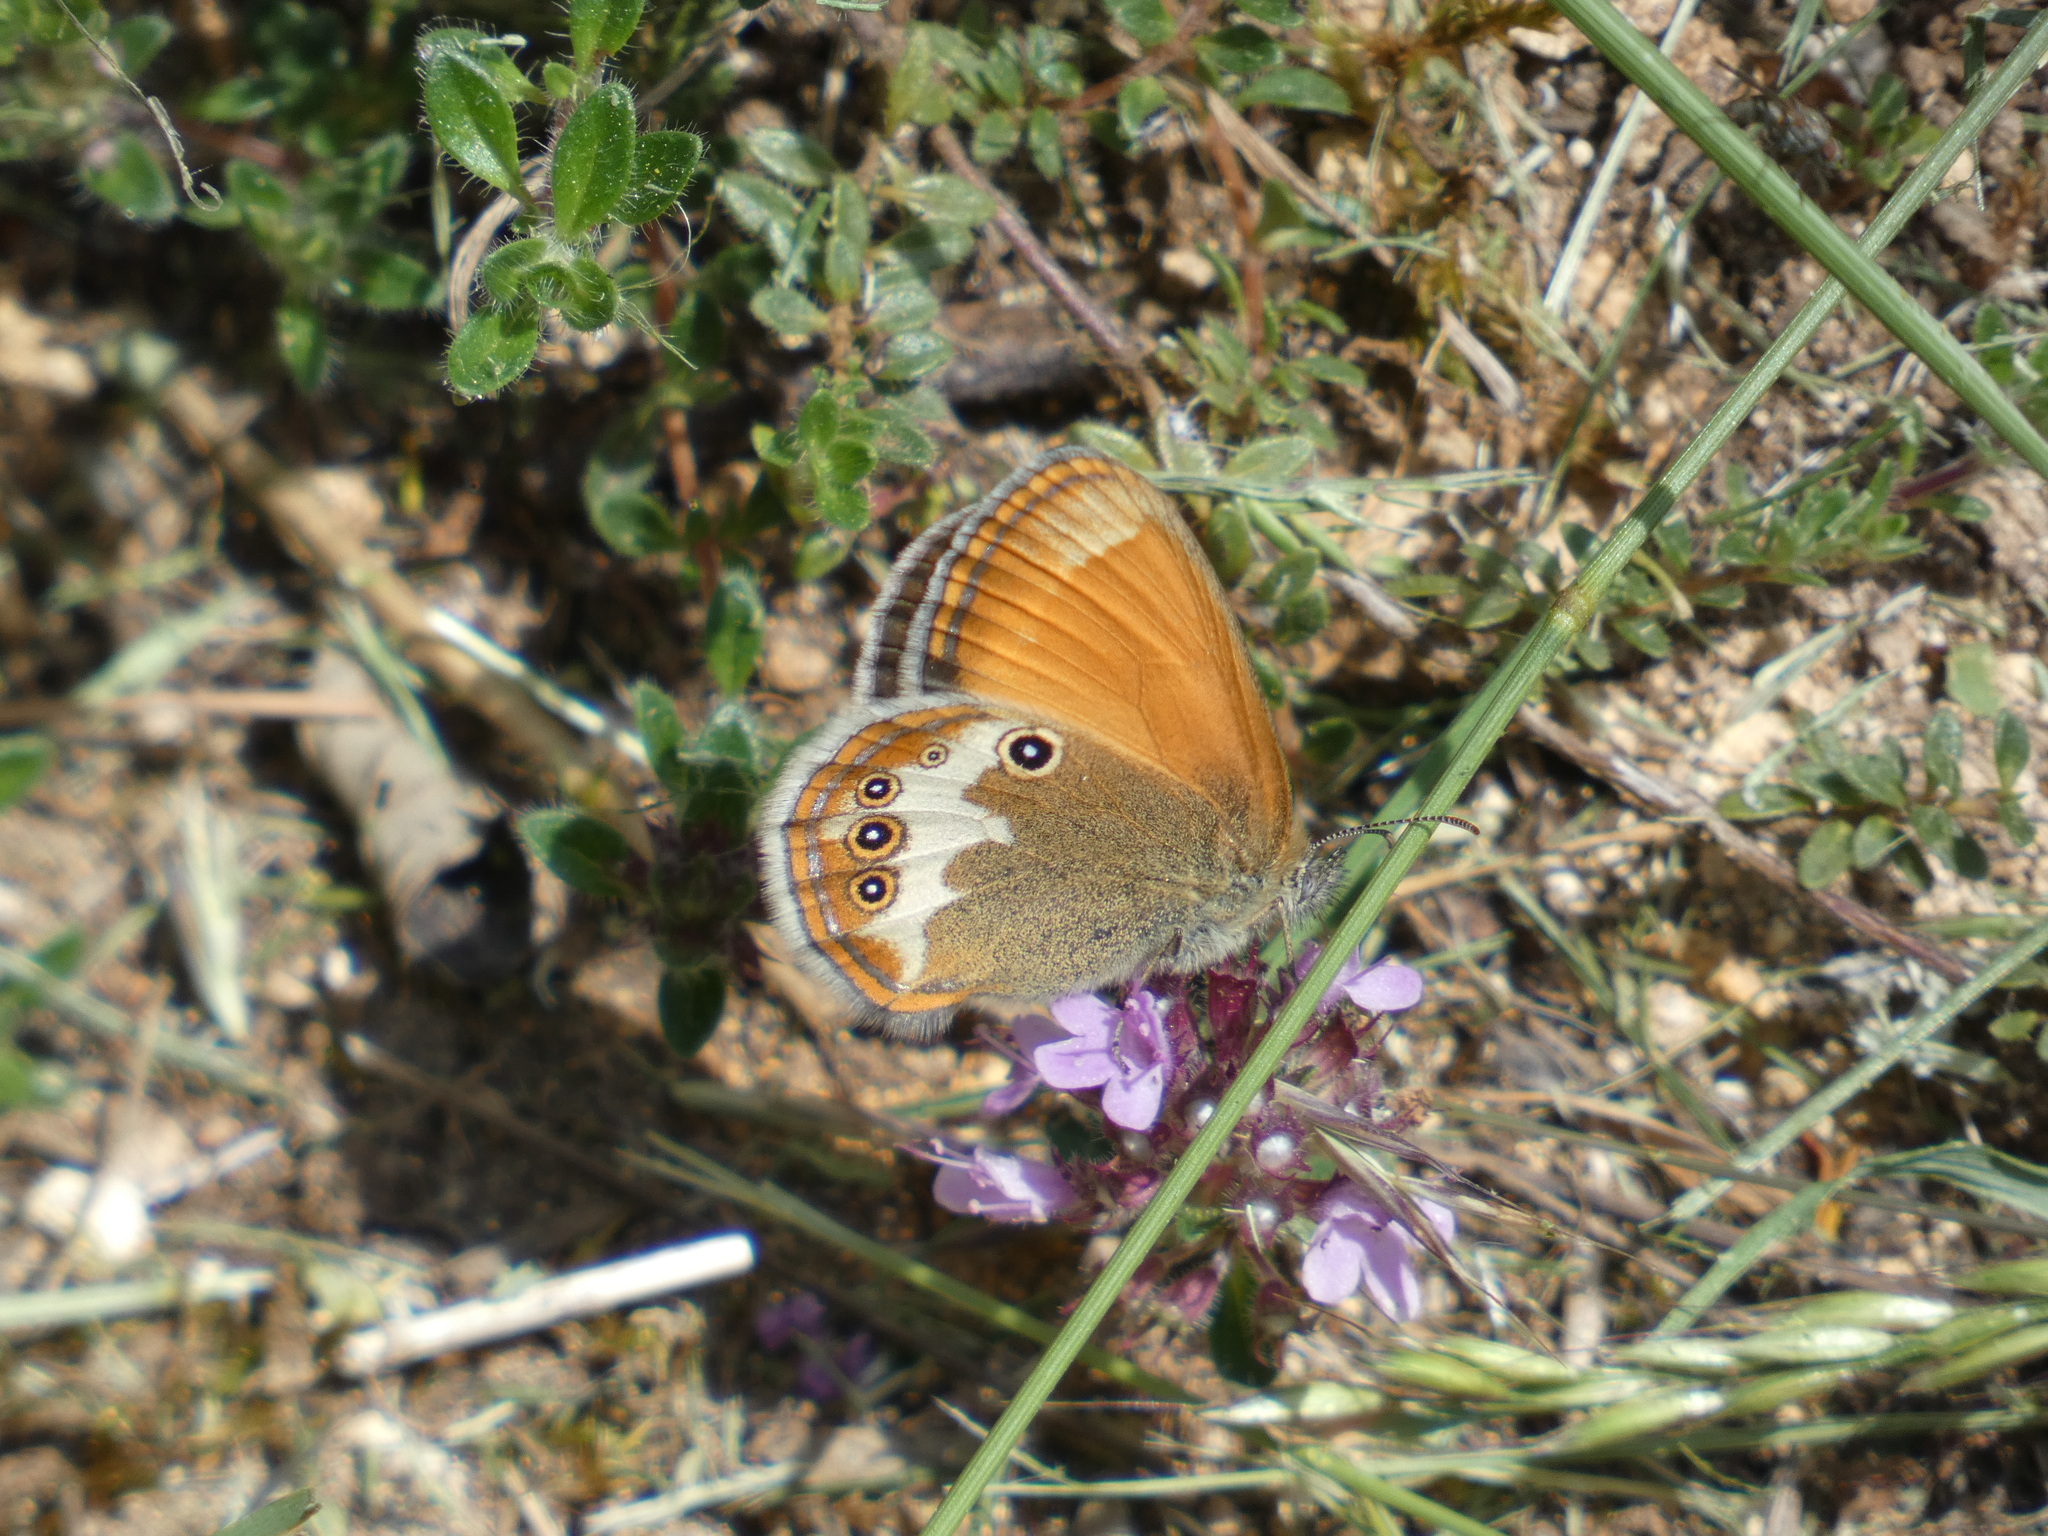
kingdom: Animalia
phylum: Arthropoda
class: Insecta
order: Lepidoptera
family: Nymphalidae
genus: Coenonympha
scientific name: Coenonympha arcania
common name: Pearly heath
